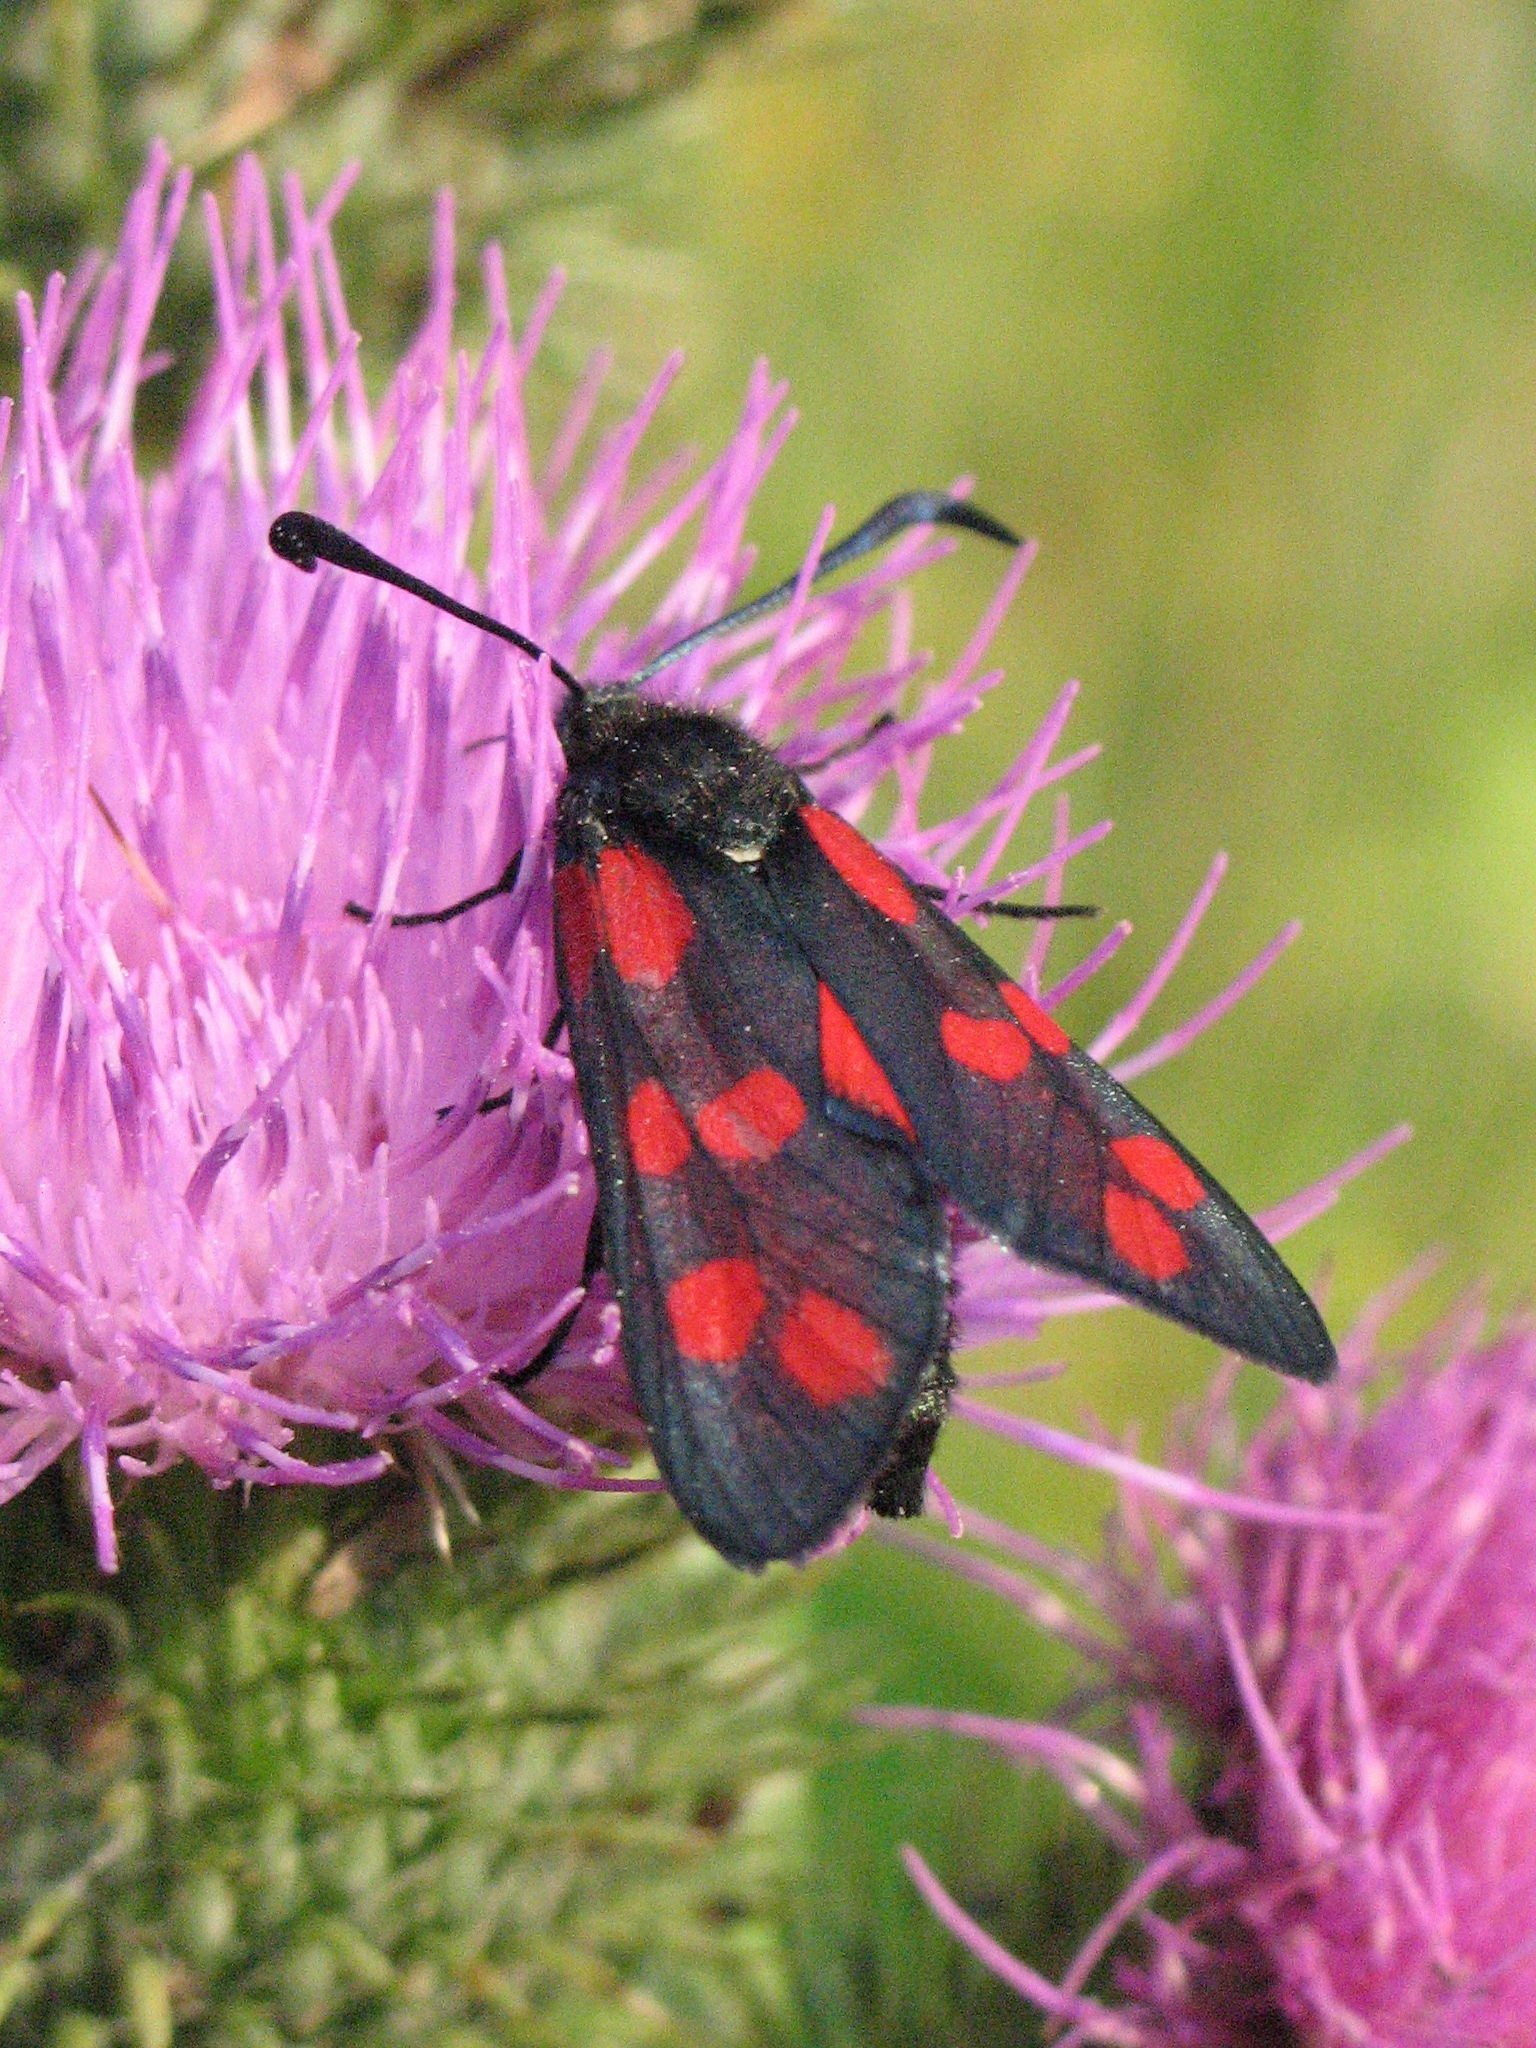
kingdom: Animalia
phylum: Arthropoda
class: Insecta
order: Lepidoptera
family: Zygaenidae
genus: Zygaena
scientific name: Zygaena filipendulae
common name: Six-spot burnet
